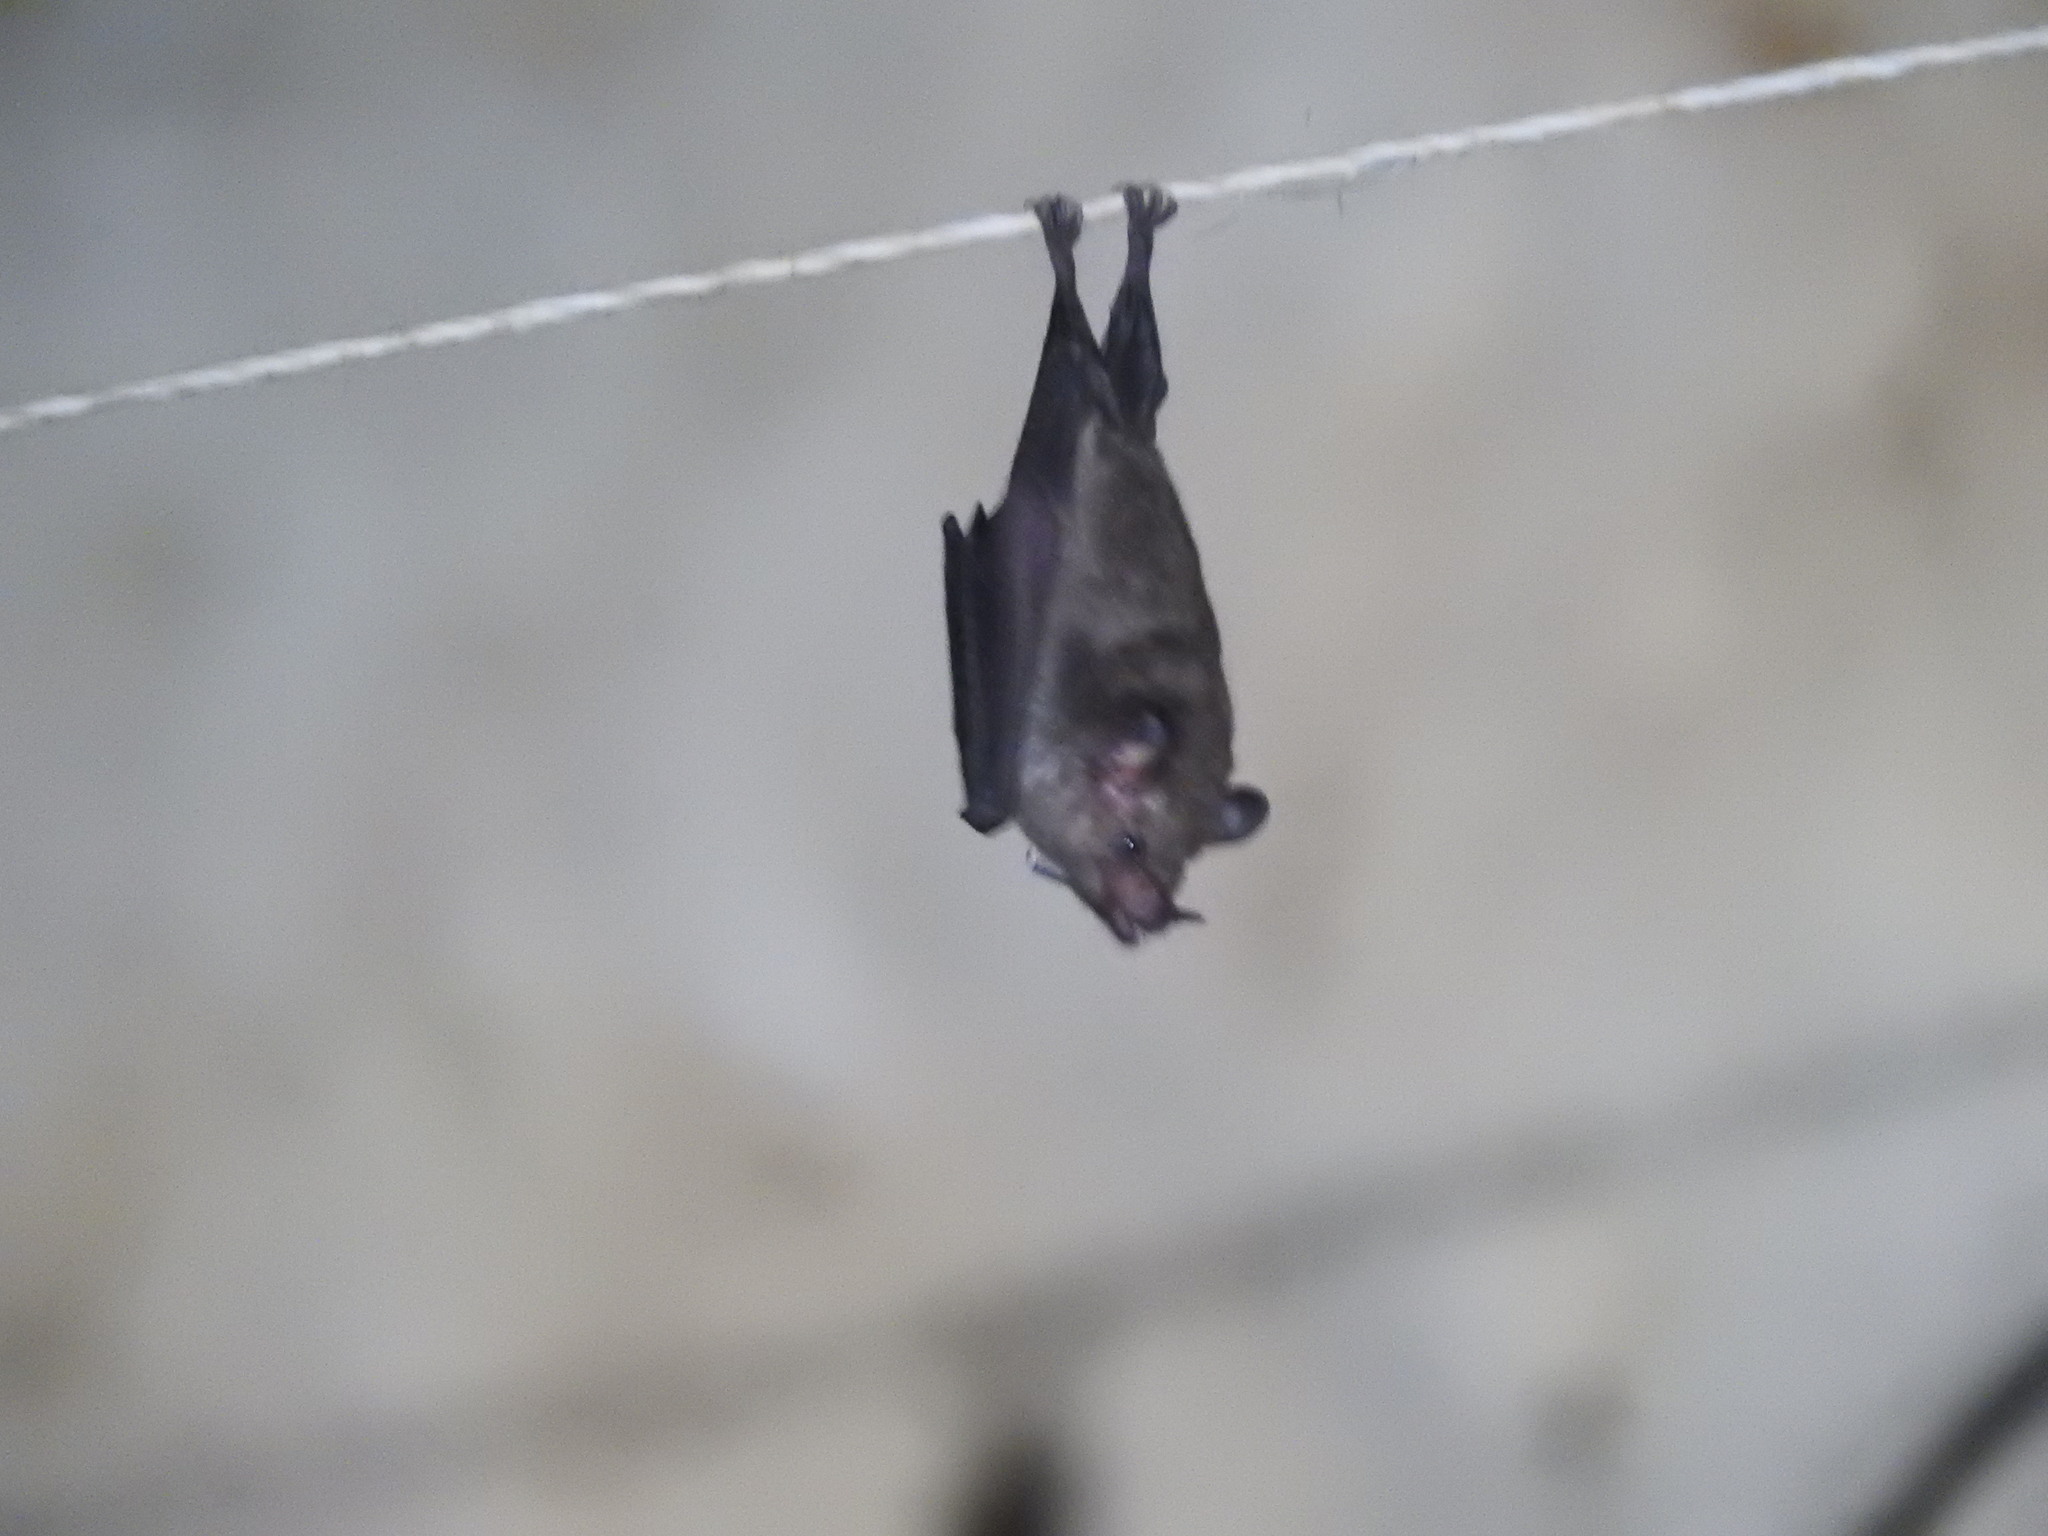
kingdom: Animalia
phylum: Chordata
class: Mammalia
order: Chiroptera
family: Phyllostomidae
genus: Glossophaga
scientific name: Glossophaga soricina
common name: Pallas's long-tongued bat
